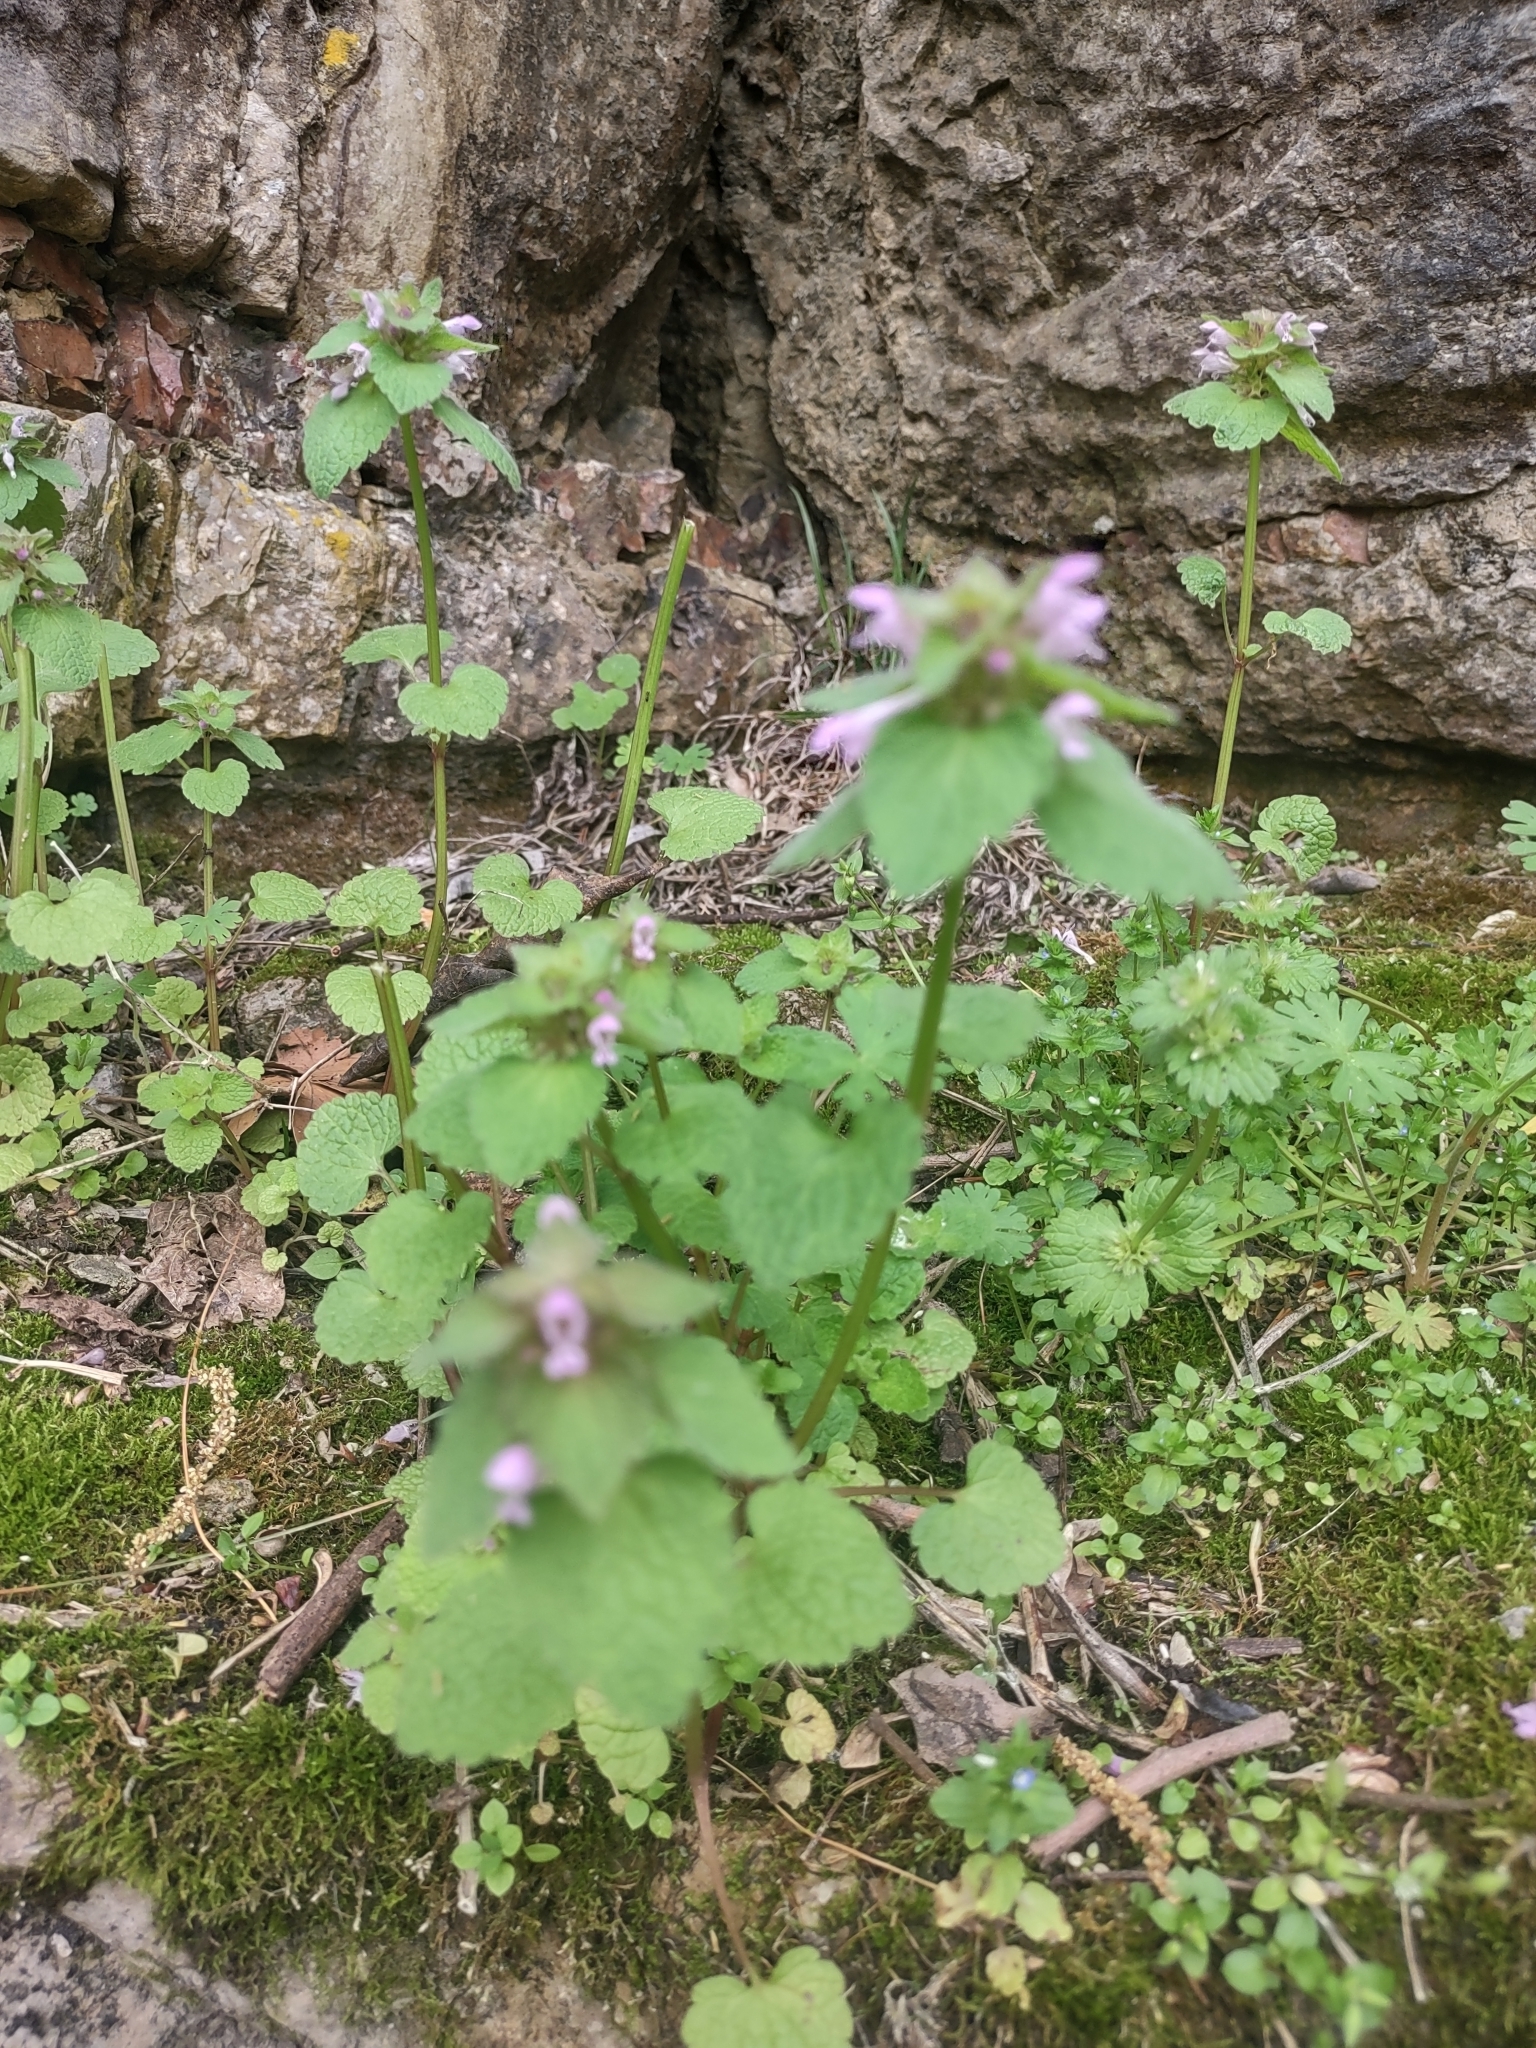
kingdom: Plantae
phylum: Tracheophyta
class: Magnoliopsida
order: Lamiales
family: Lamiaceae
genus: Lamium
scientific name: Lamium purpureum
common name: Red dead-nettle
